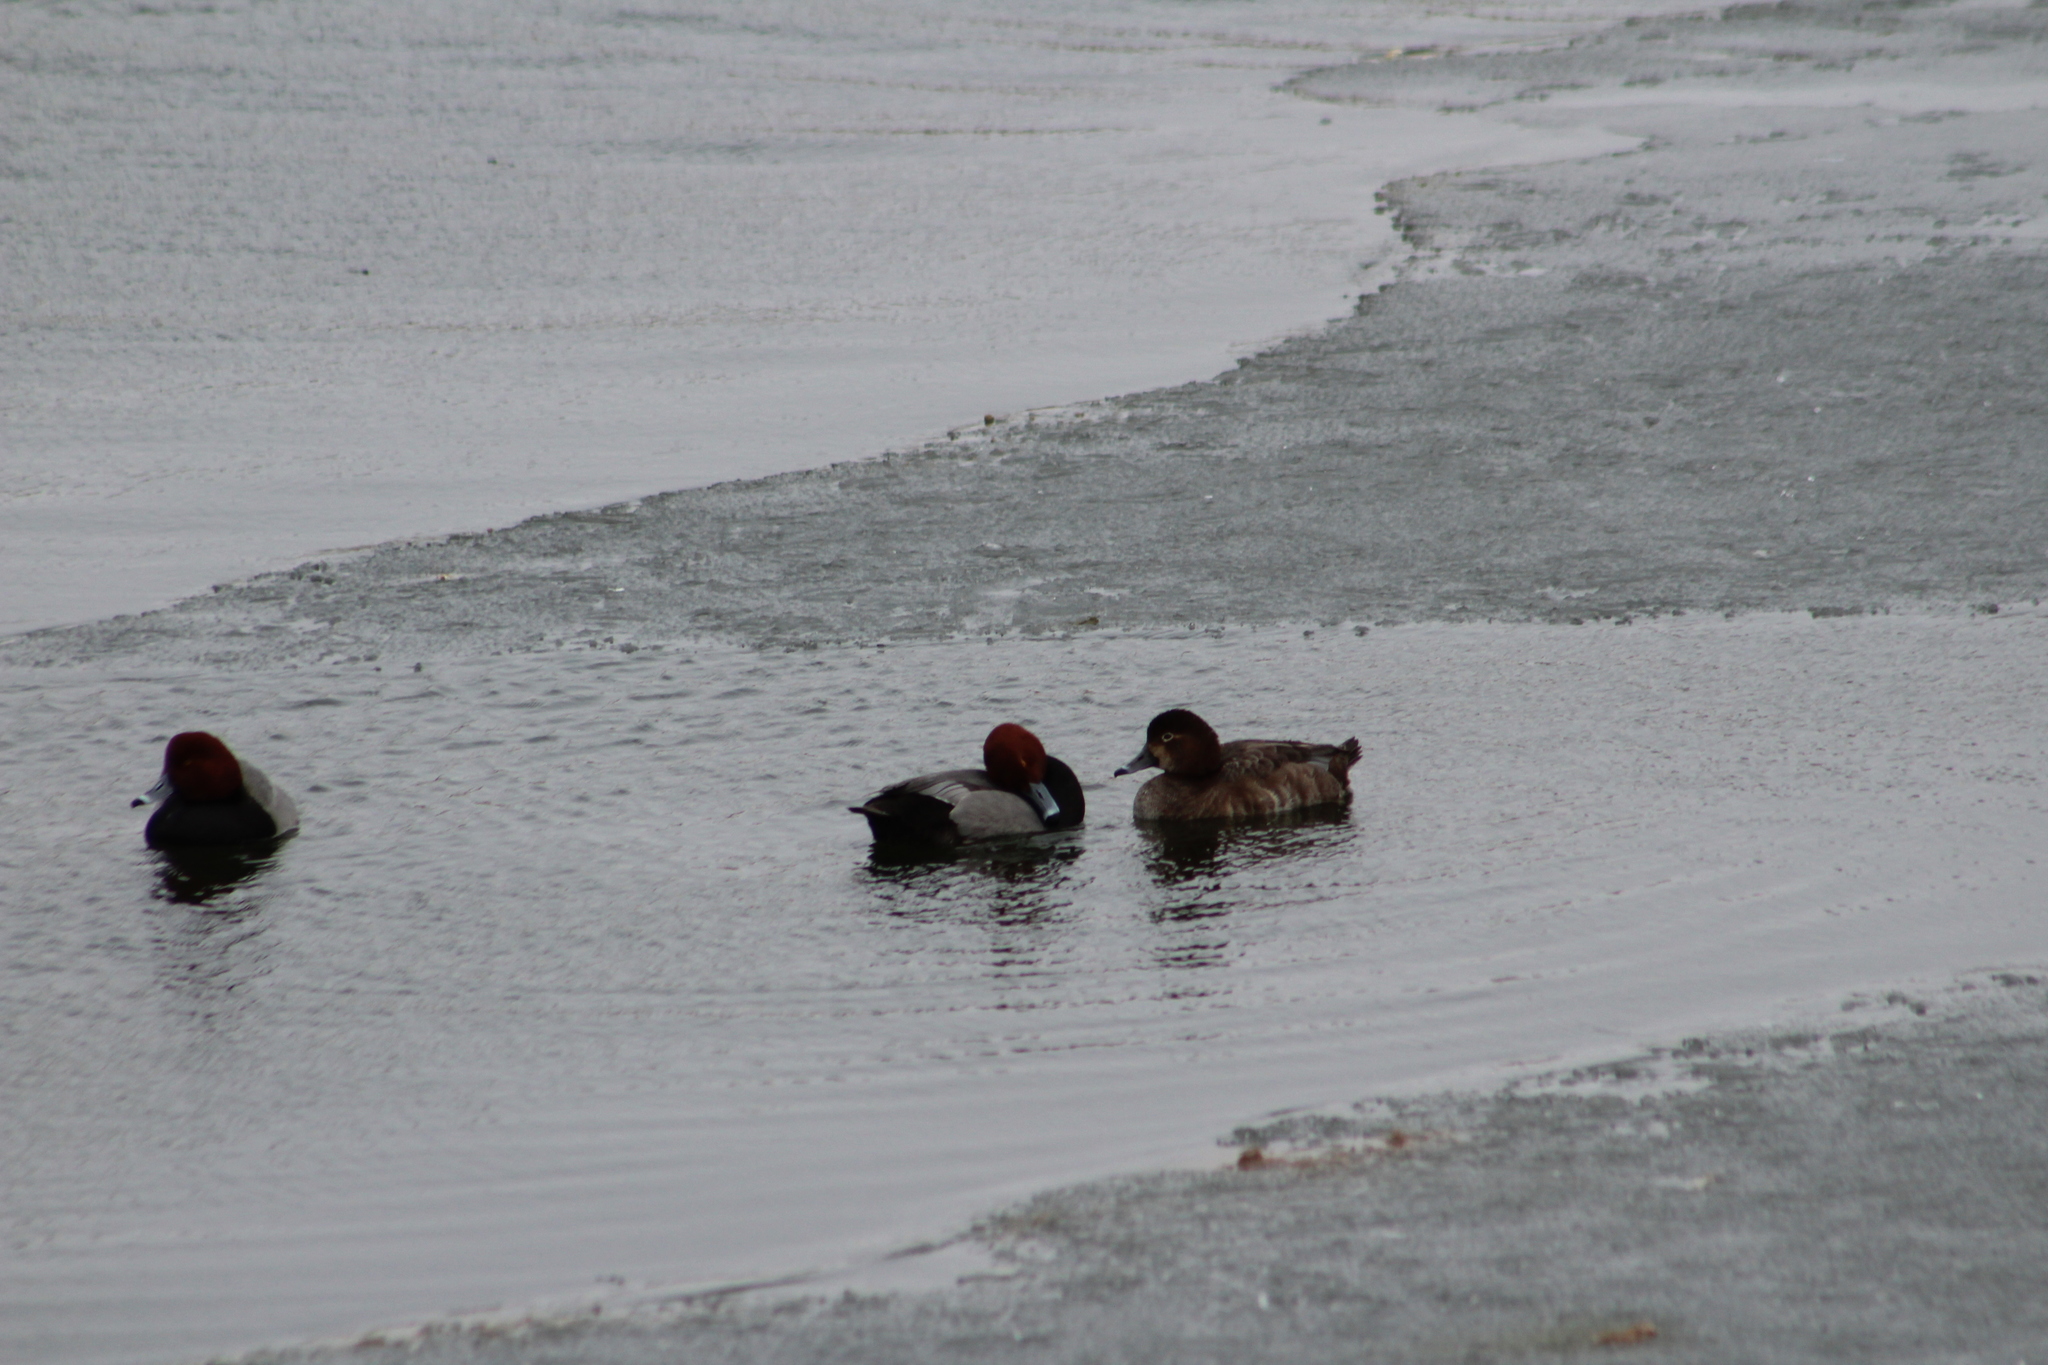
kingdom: Animalia
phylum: Chordata
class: Aves
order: Anseriformes
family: Anatidae
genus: Aythya
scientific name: Aythya americana
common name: Redhead
